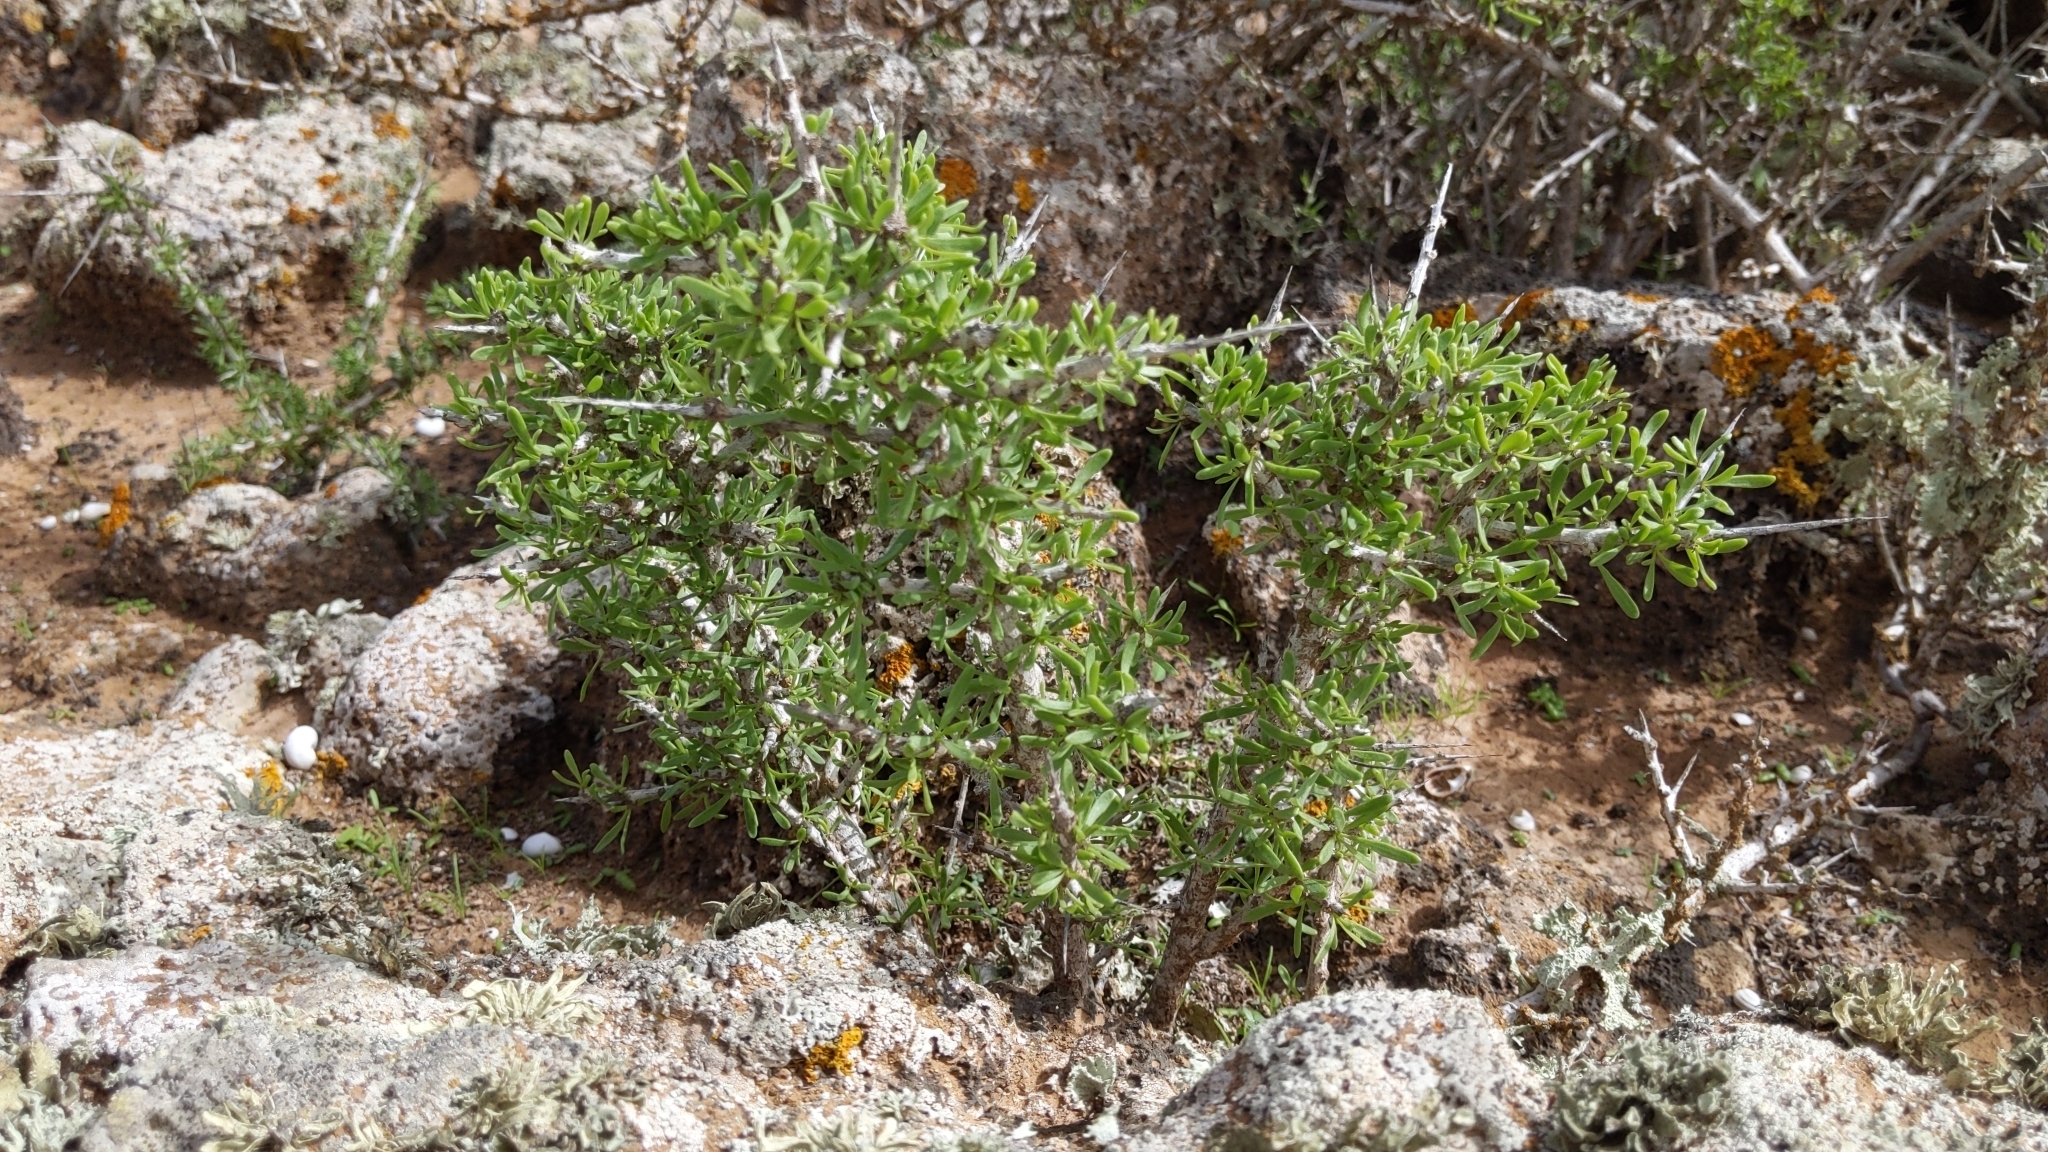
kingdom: Plantae
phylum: Tracheophyta
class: Magnoliopsida
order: Solanales
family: Solanaceae
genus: Lycium
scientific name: Lycium intricatum
